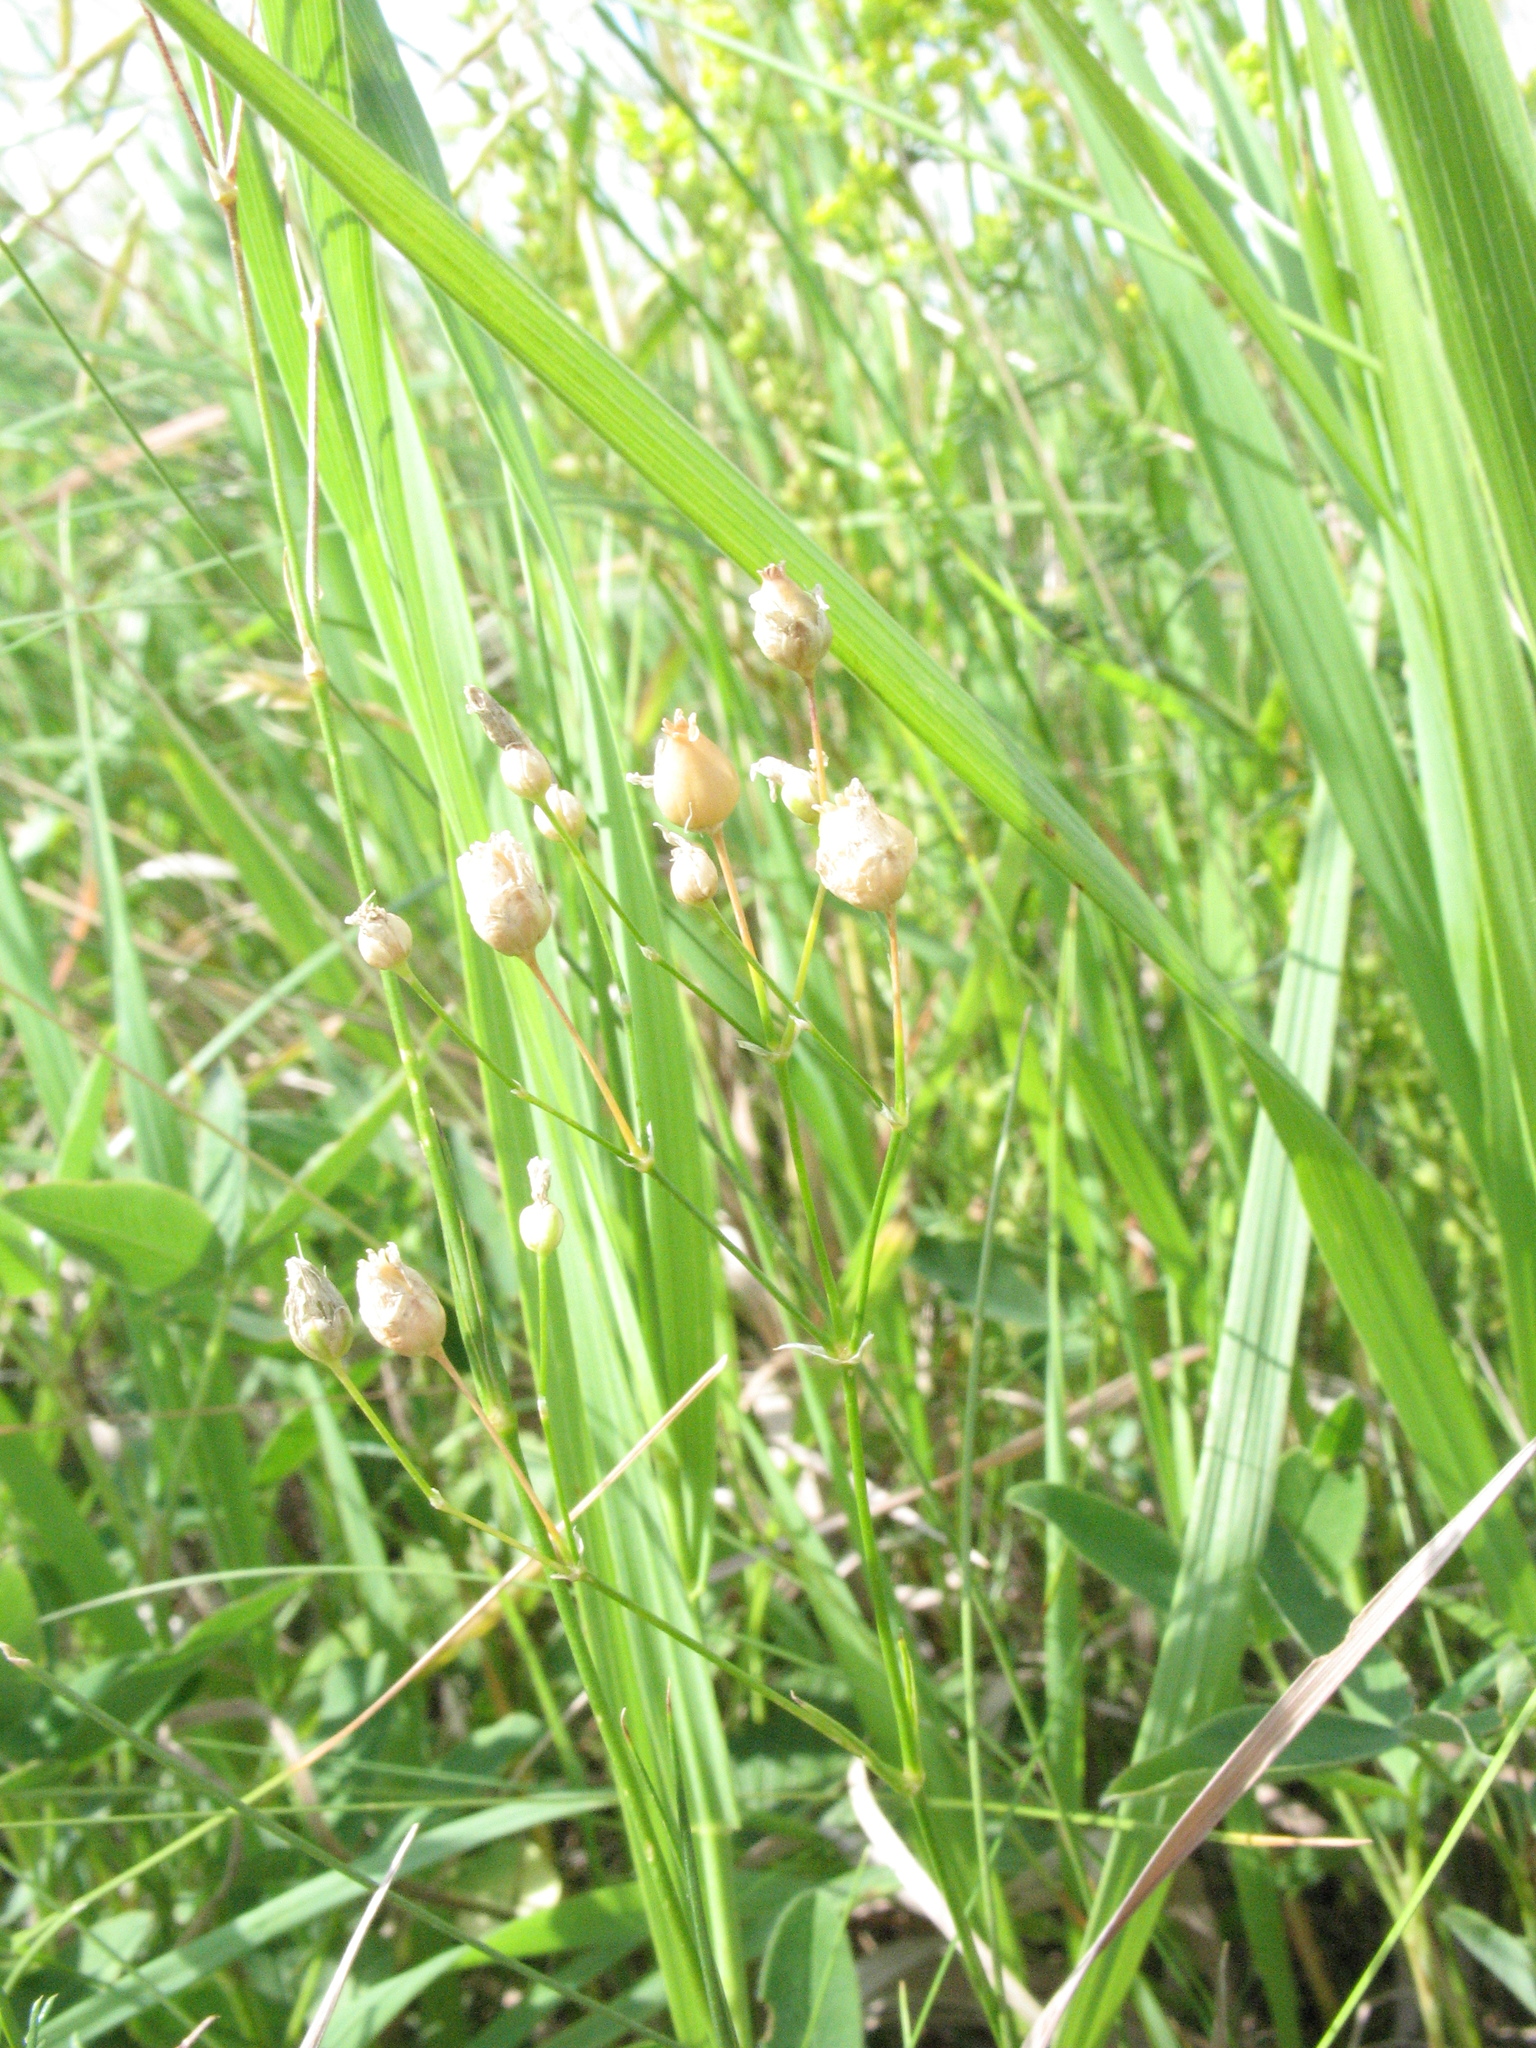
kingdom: Plantae
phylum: Tracheophyta
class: Magnoliopsida
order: Caryophyllales
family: Caryophyllaceae
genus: Eremogone
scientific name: Eremogone saxatilis
